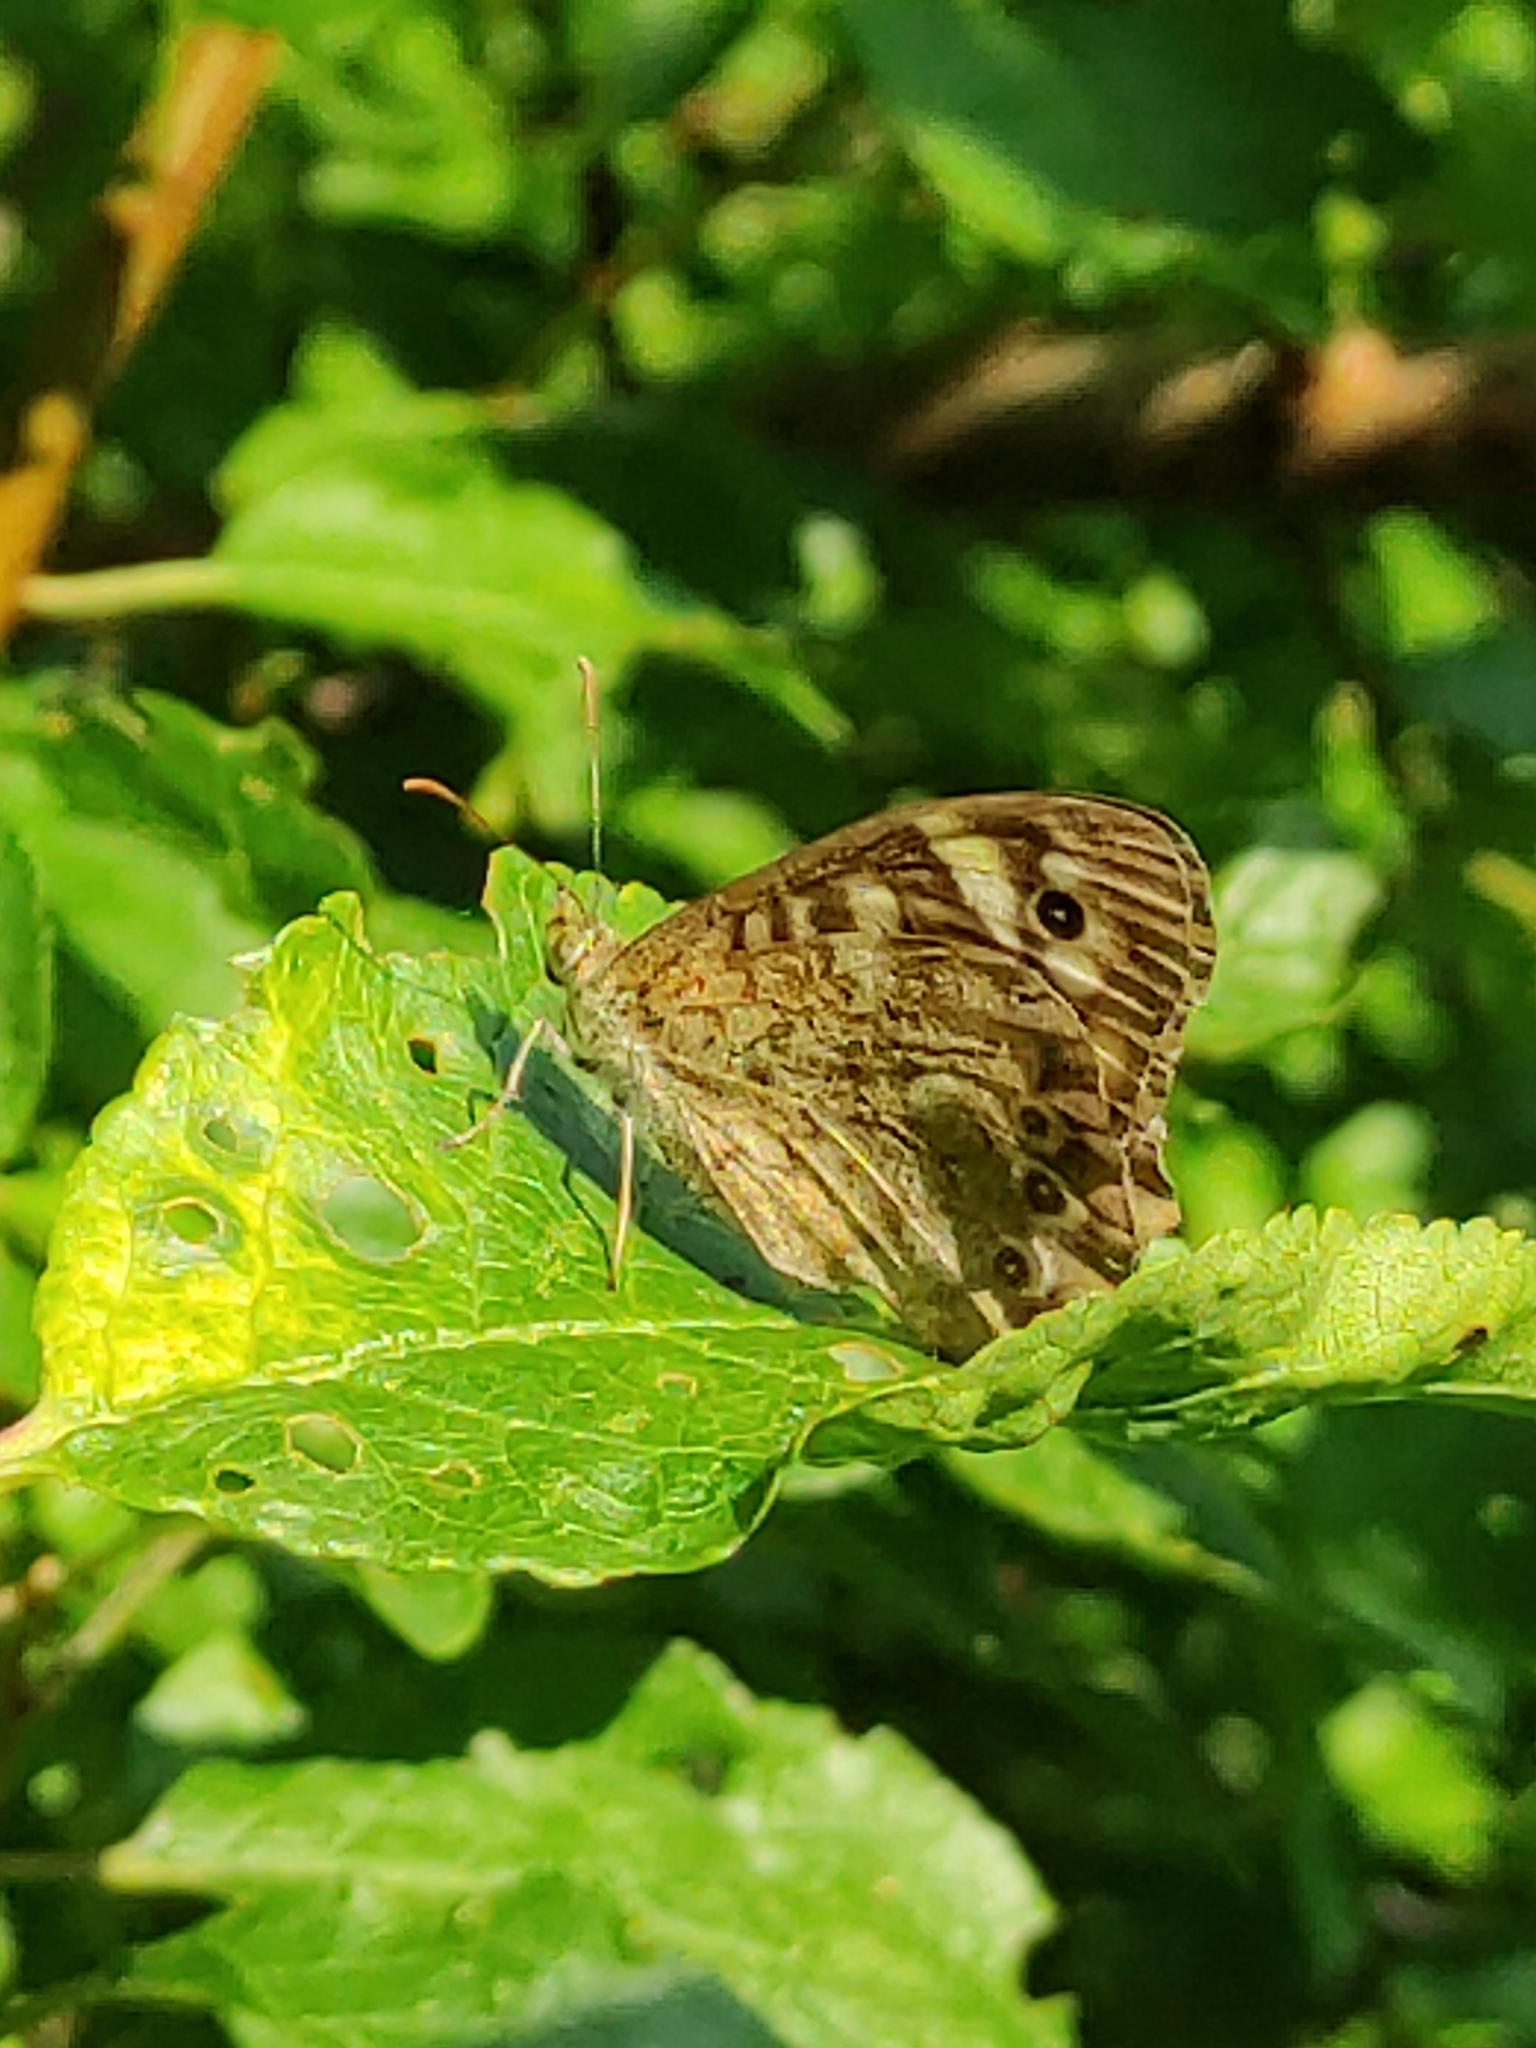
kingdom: Animalia
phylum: Arthropoda
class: Insecta
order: Lepidoptera
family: Nymphalidae
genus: Pararge
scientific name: Pararge aegeria
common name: Speckled wood
